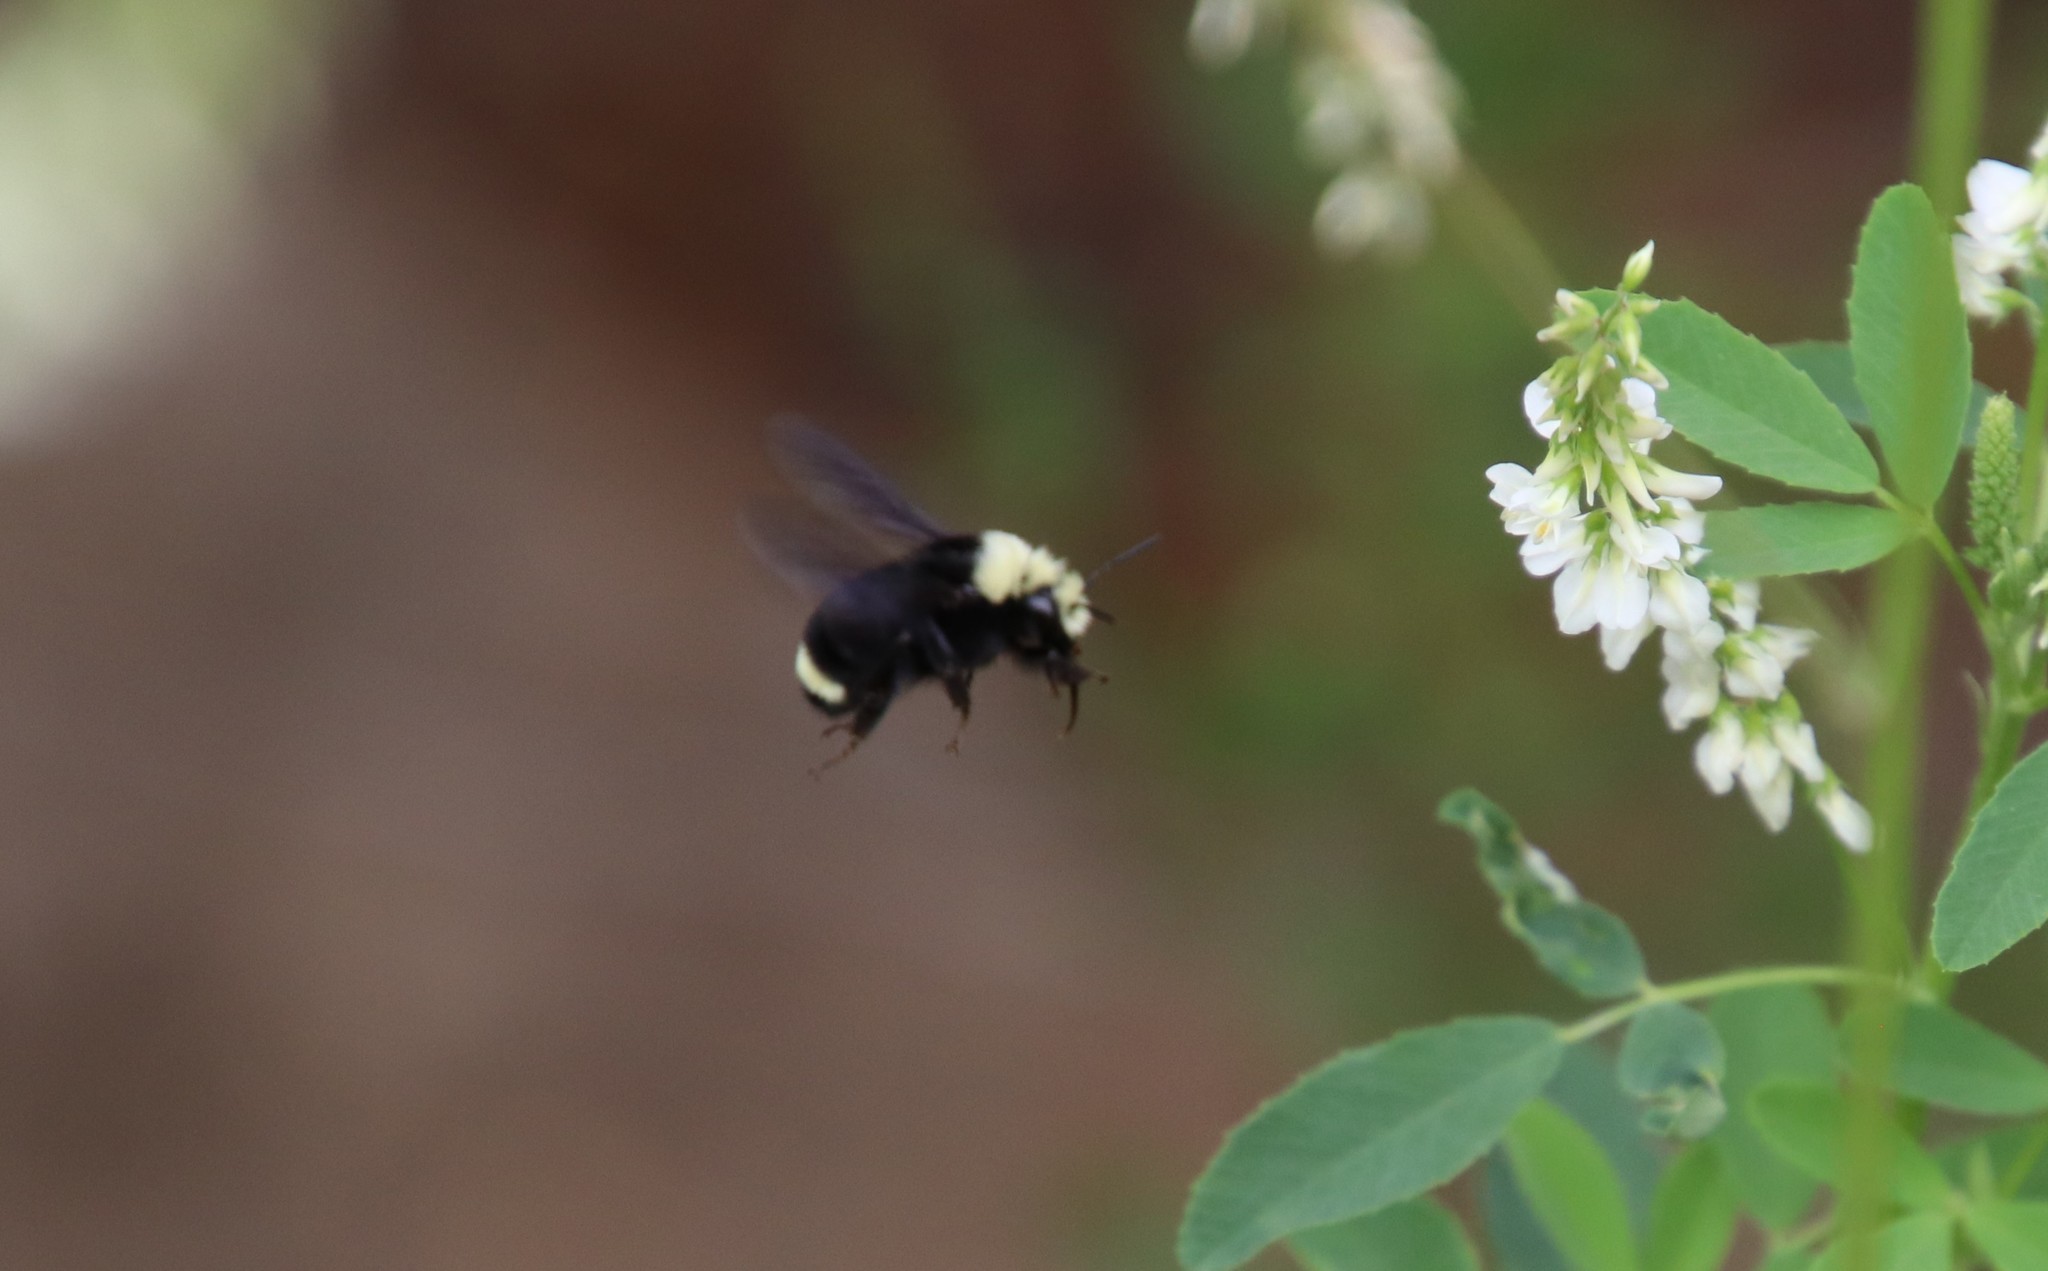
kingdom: Animalia
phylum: Arthropoda
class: Insecta
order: Hymenoptera
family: Apidae
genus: Bombus
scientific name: Bombus vosnesenskii
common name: Vosnesensky bumble bee
